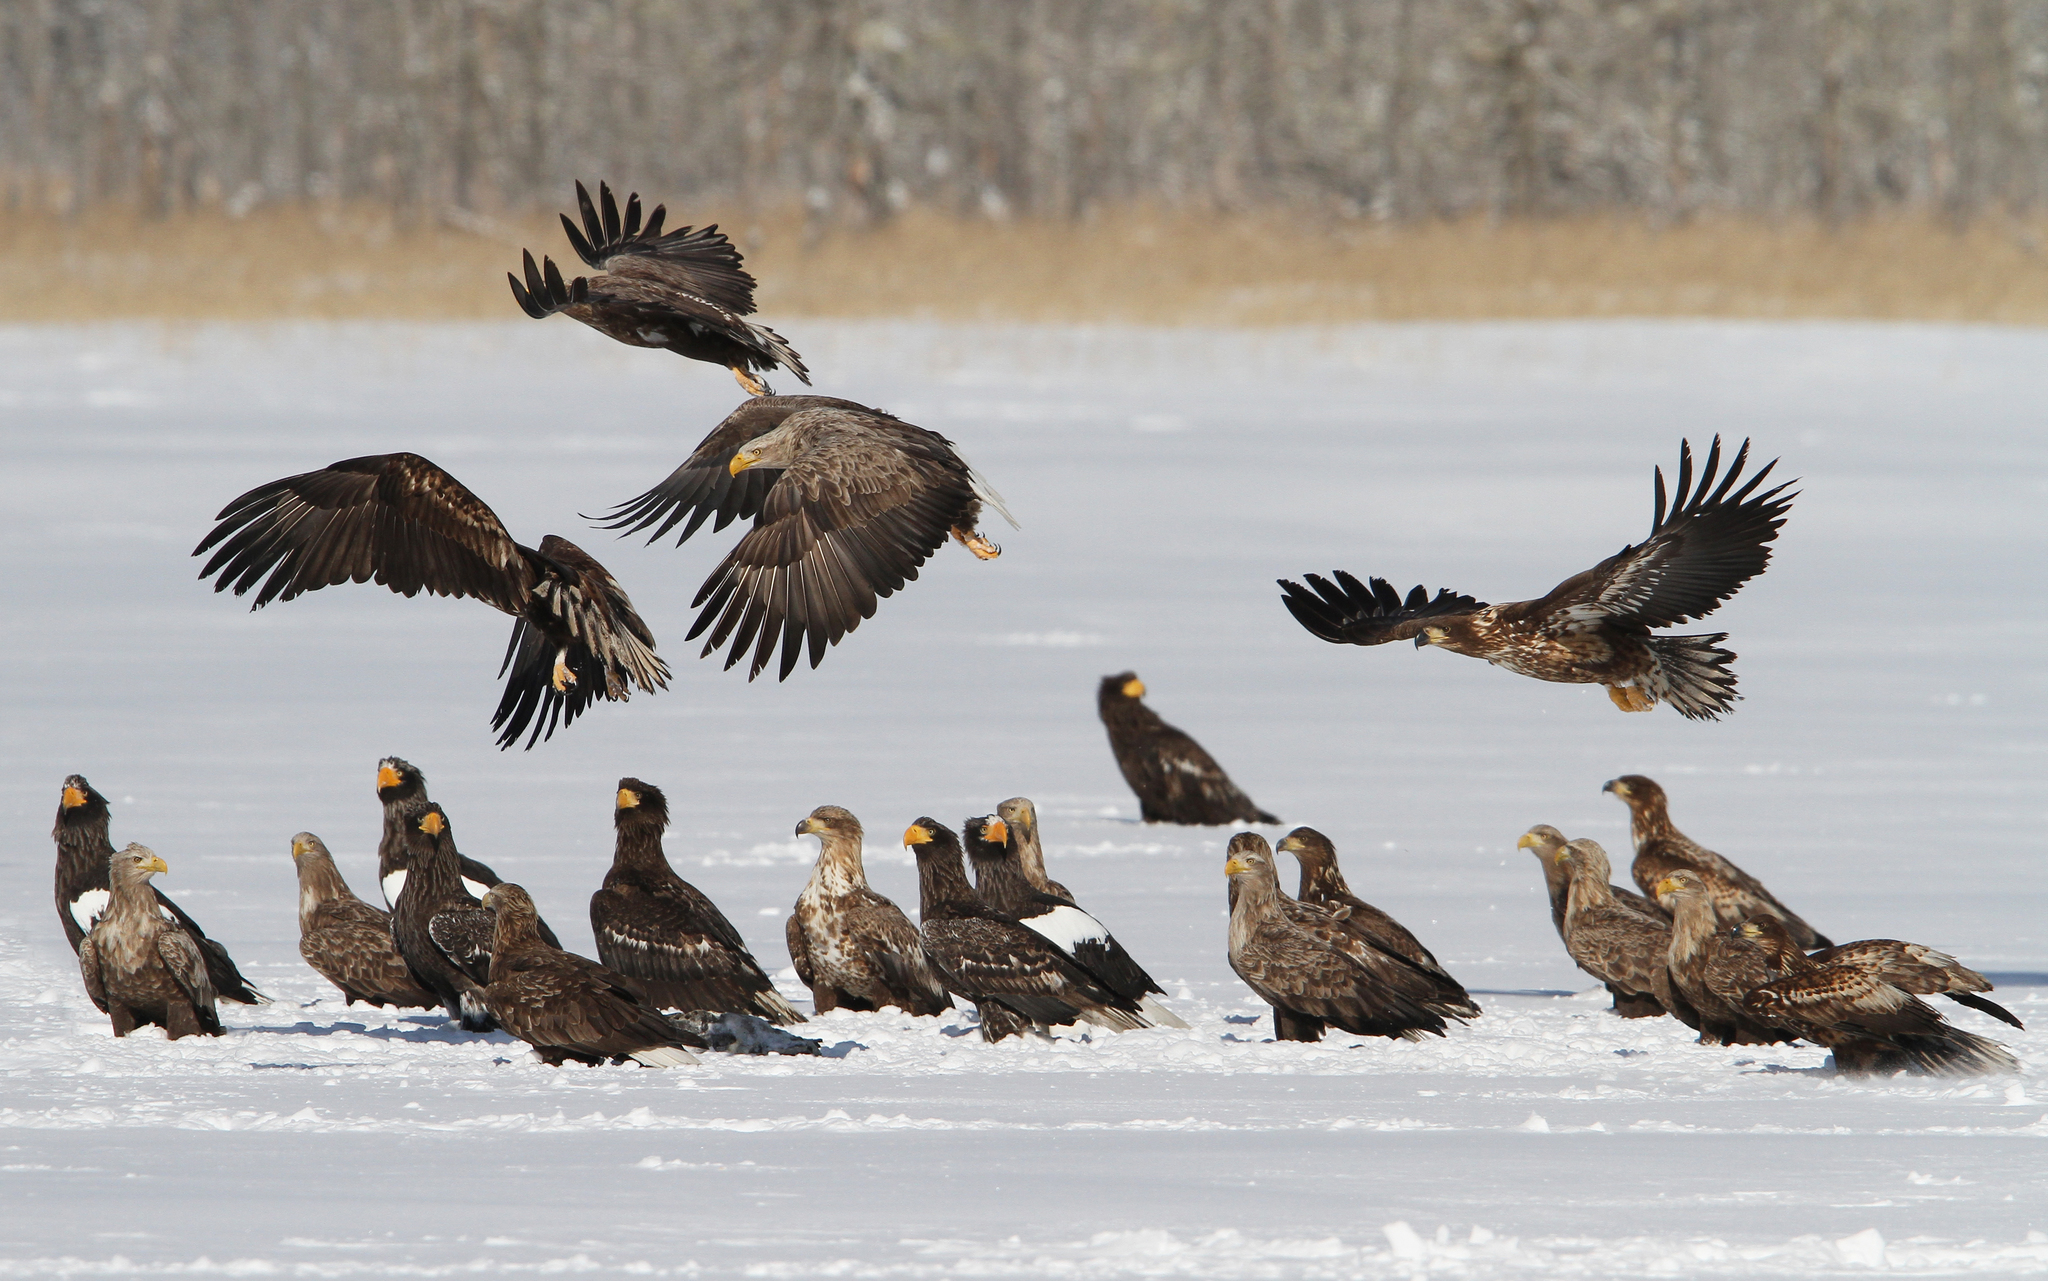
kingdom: Animalia
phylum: Chordata
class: Aves
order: Accipitriformes
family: Accipitridae
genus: Haliaeetus
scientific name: Haliaeetus albicilla
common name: White-tailed eagle
